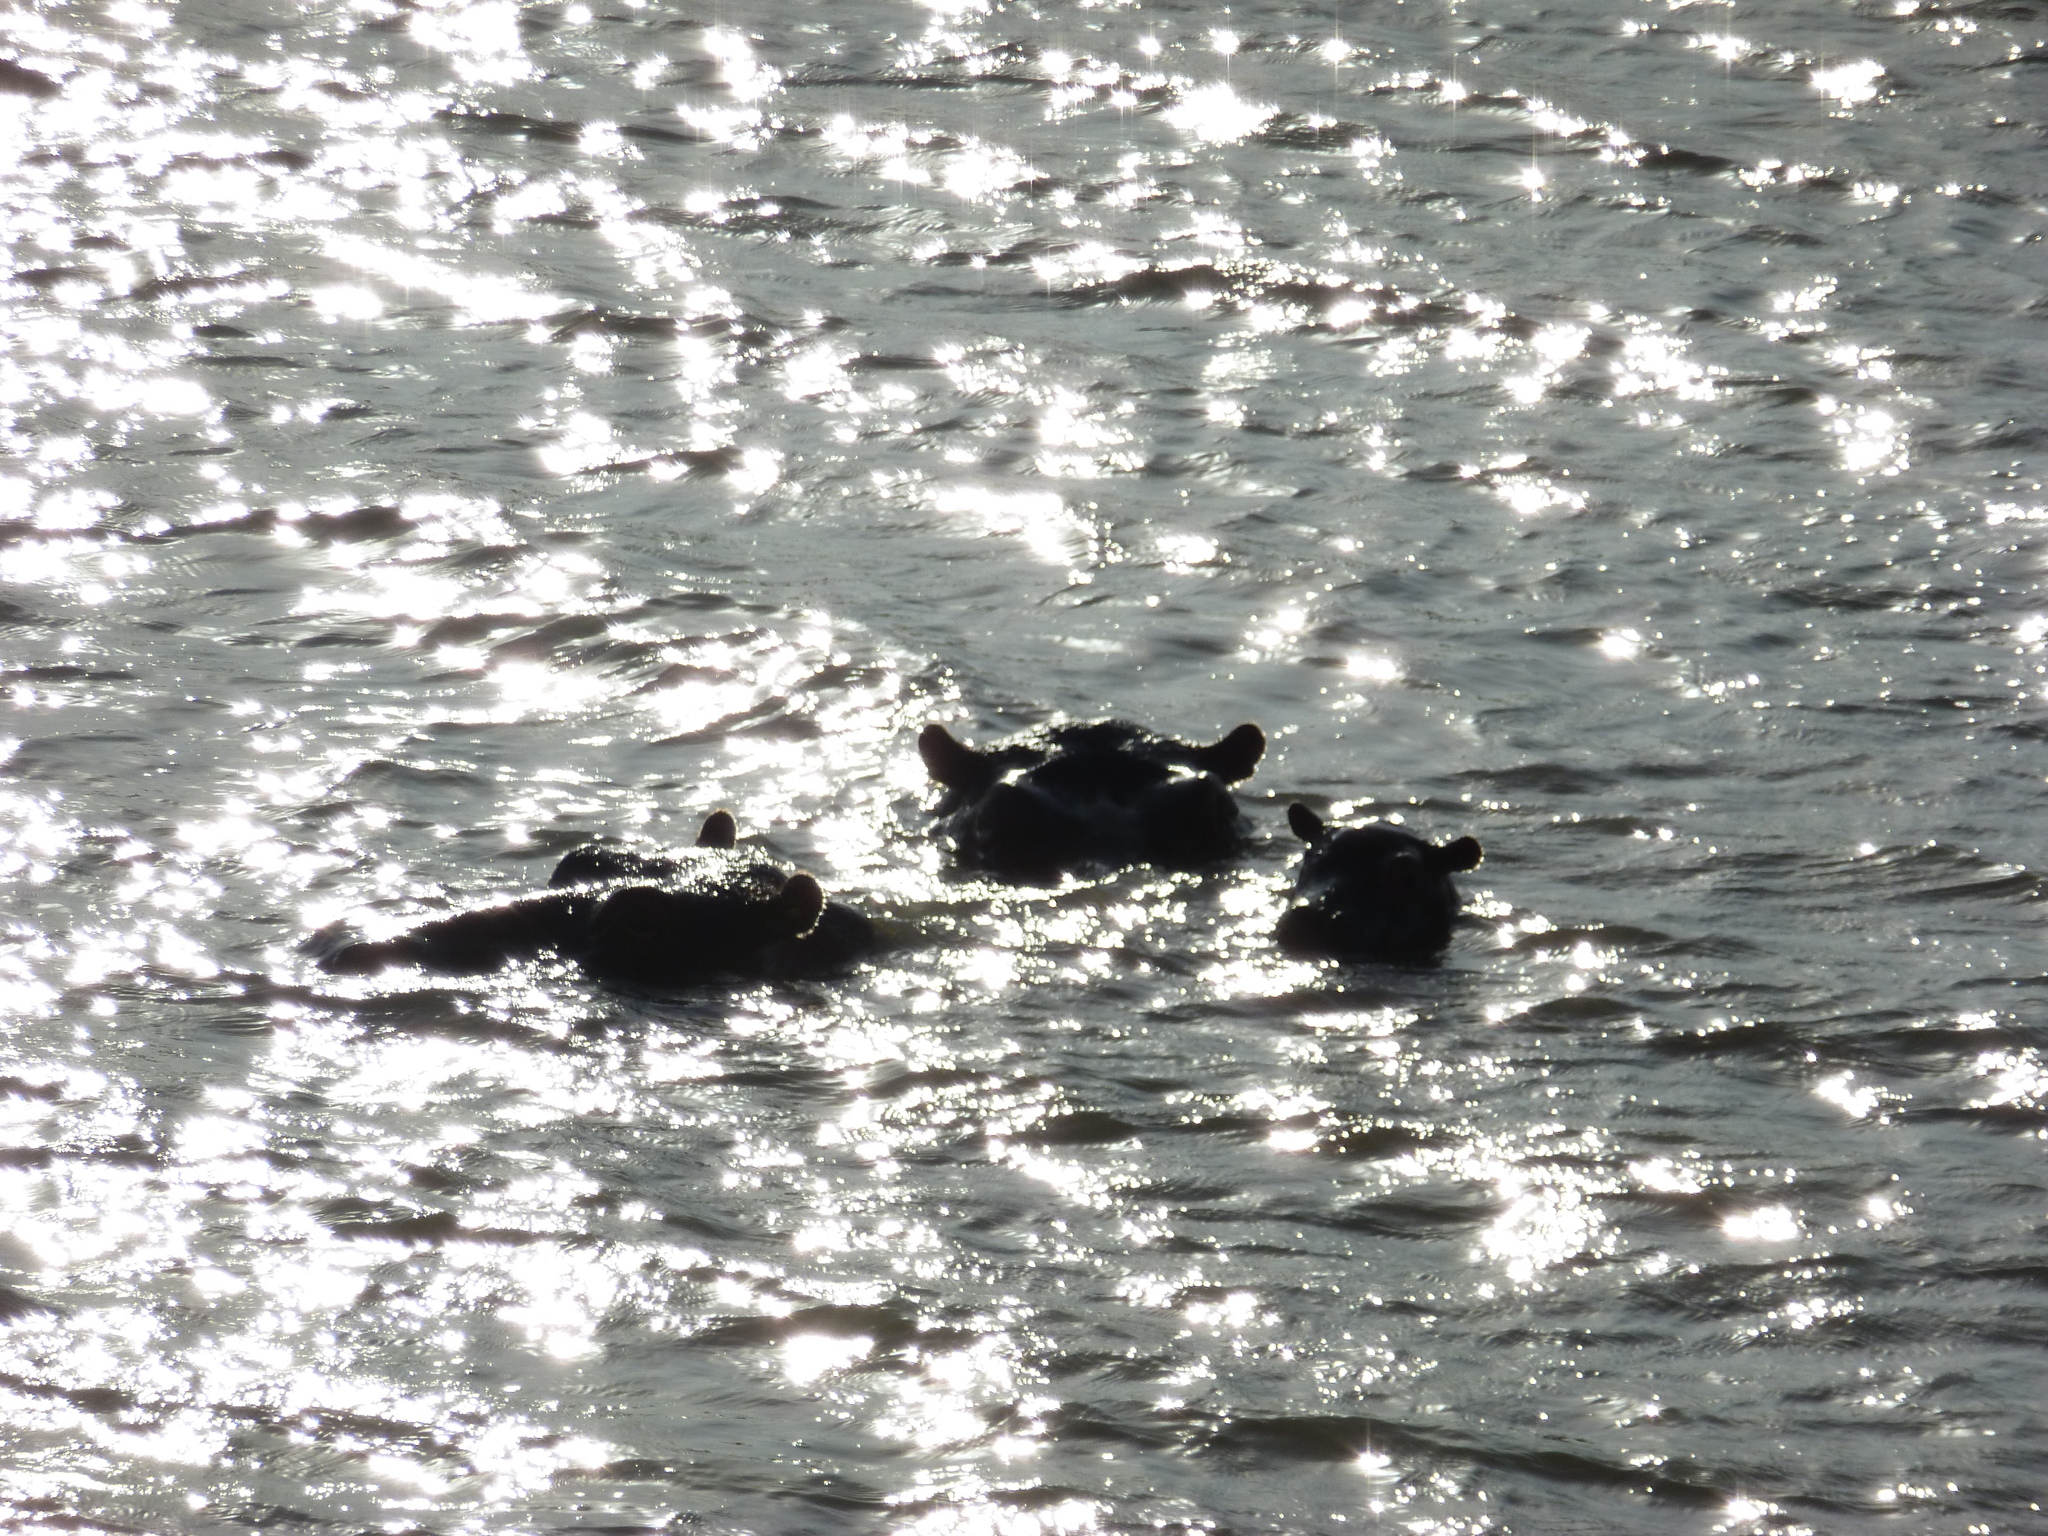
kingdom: Animalia
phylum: Chordata
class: Mammalia
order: Artiodactyla
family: Hippopotamidae
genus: Hippopotamus
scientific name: Hippopotamus amphibius
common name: Common hippopotamus
